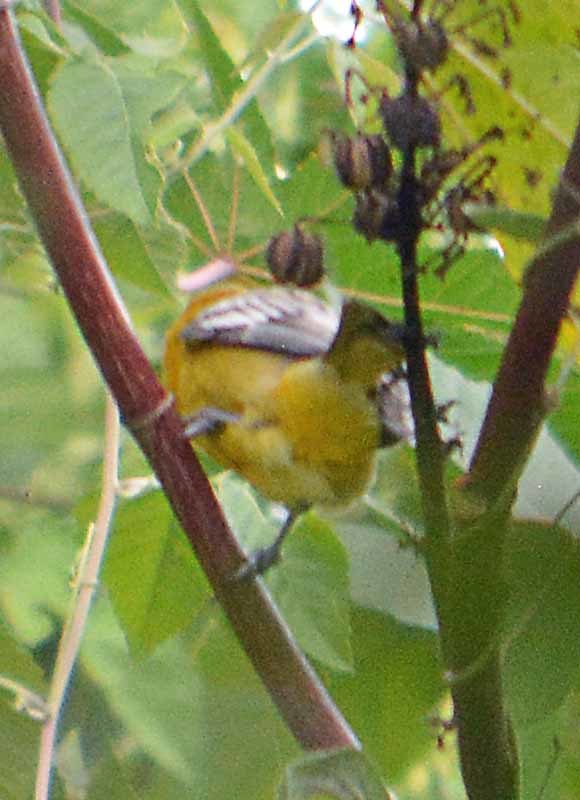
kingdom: Animalia
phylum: Chordata
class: Aves
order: Passeriformes
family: Icteridae
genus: Icterus
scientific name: Icterus pustulatus
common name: Streak-backed oriole
